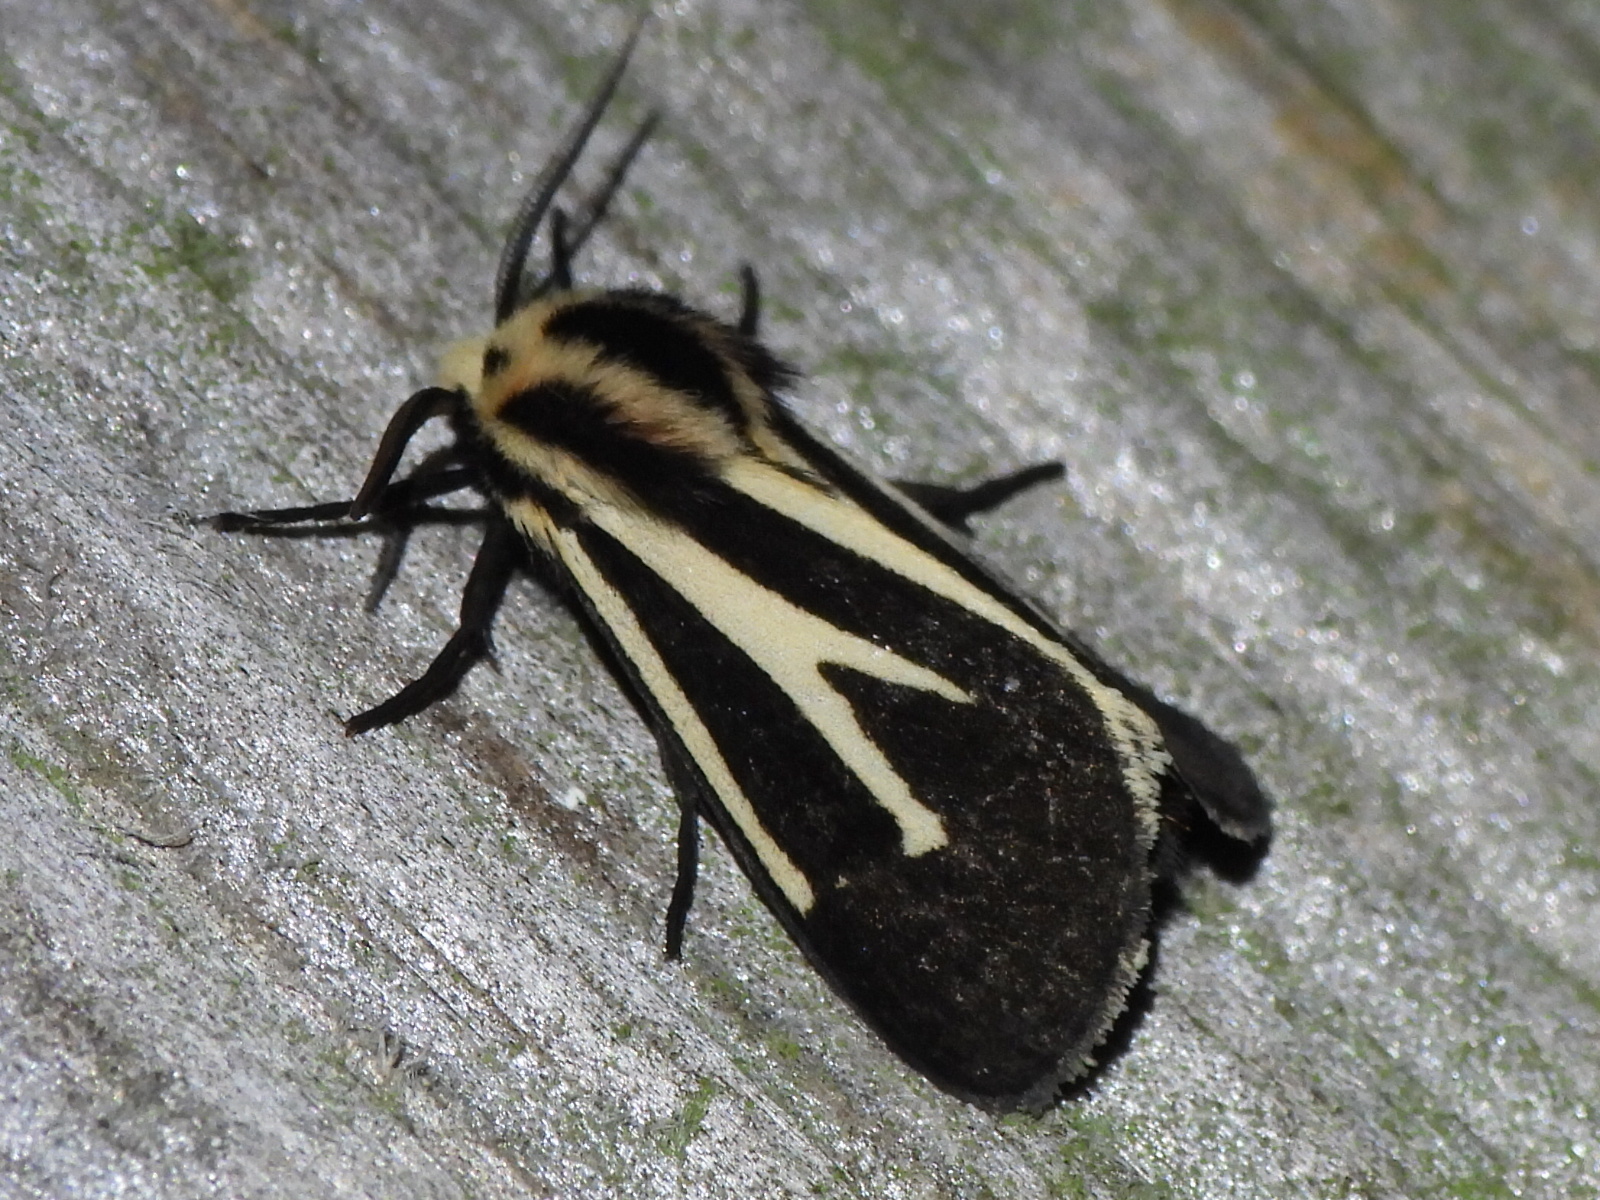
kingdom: Animalia
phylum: Arthropoda
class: Insecta
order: Lepidoptera
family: Erebidae
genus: Apantesis
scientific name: Apantesis vittata
